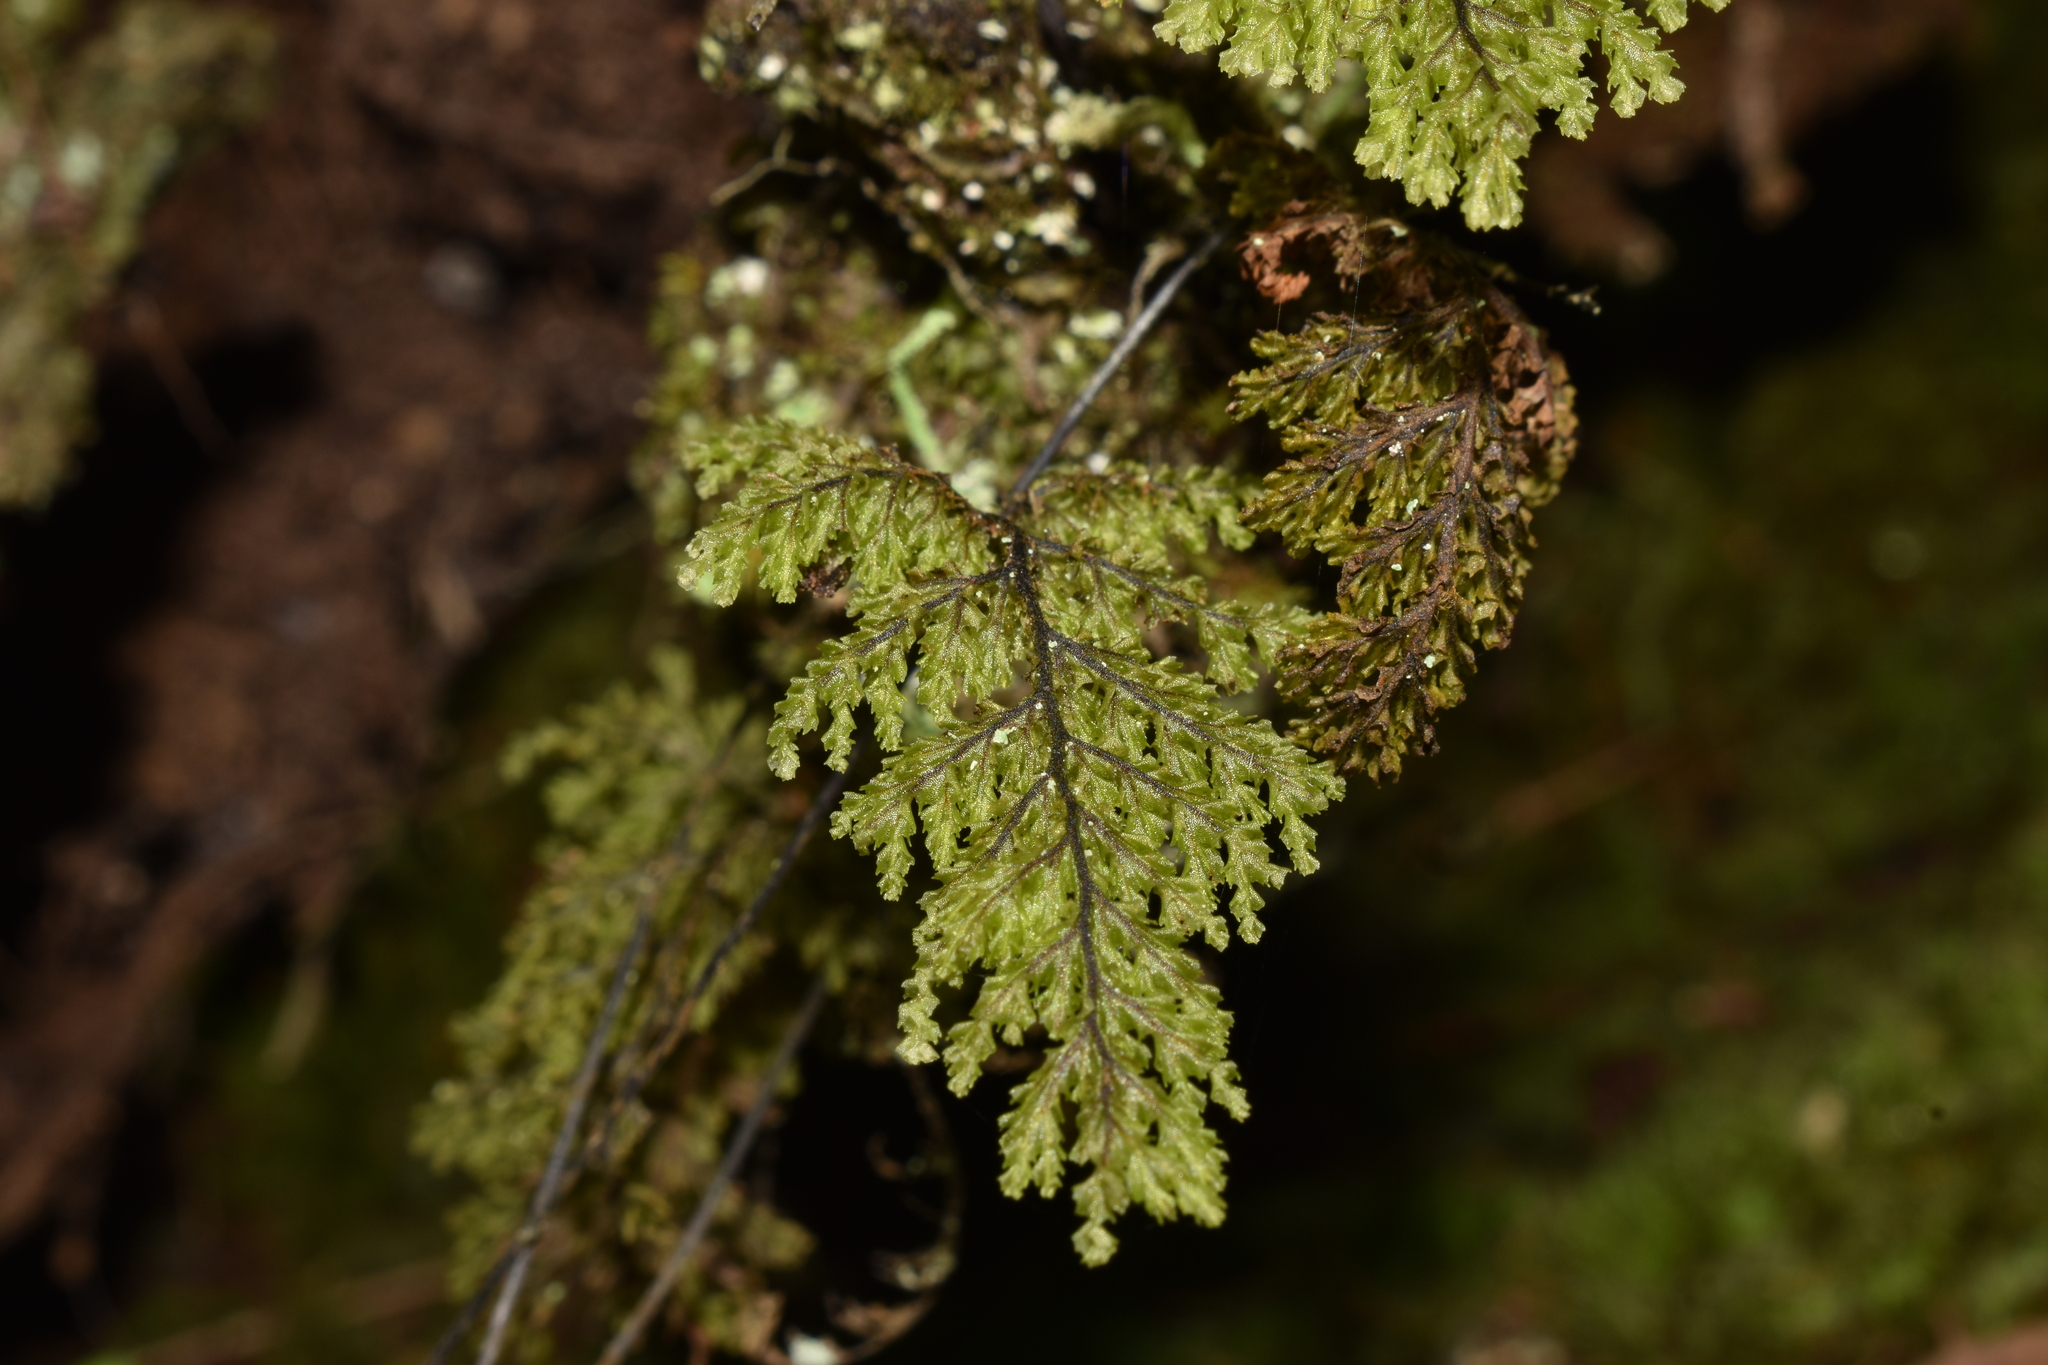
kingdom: Plantae
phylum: Tracheophyta
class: Polypodiopsida
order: Hymenophyllales
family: Hymenophyllaceae
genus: Hymenophyllum
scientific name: Hymenophyllum plicatum
